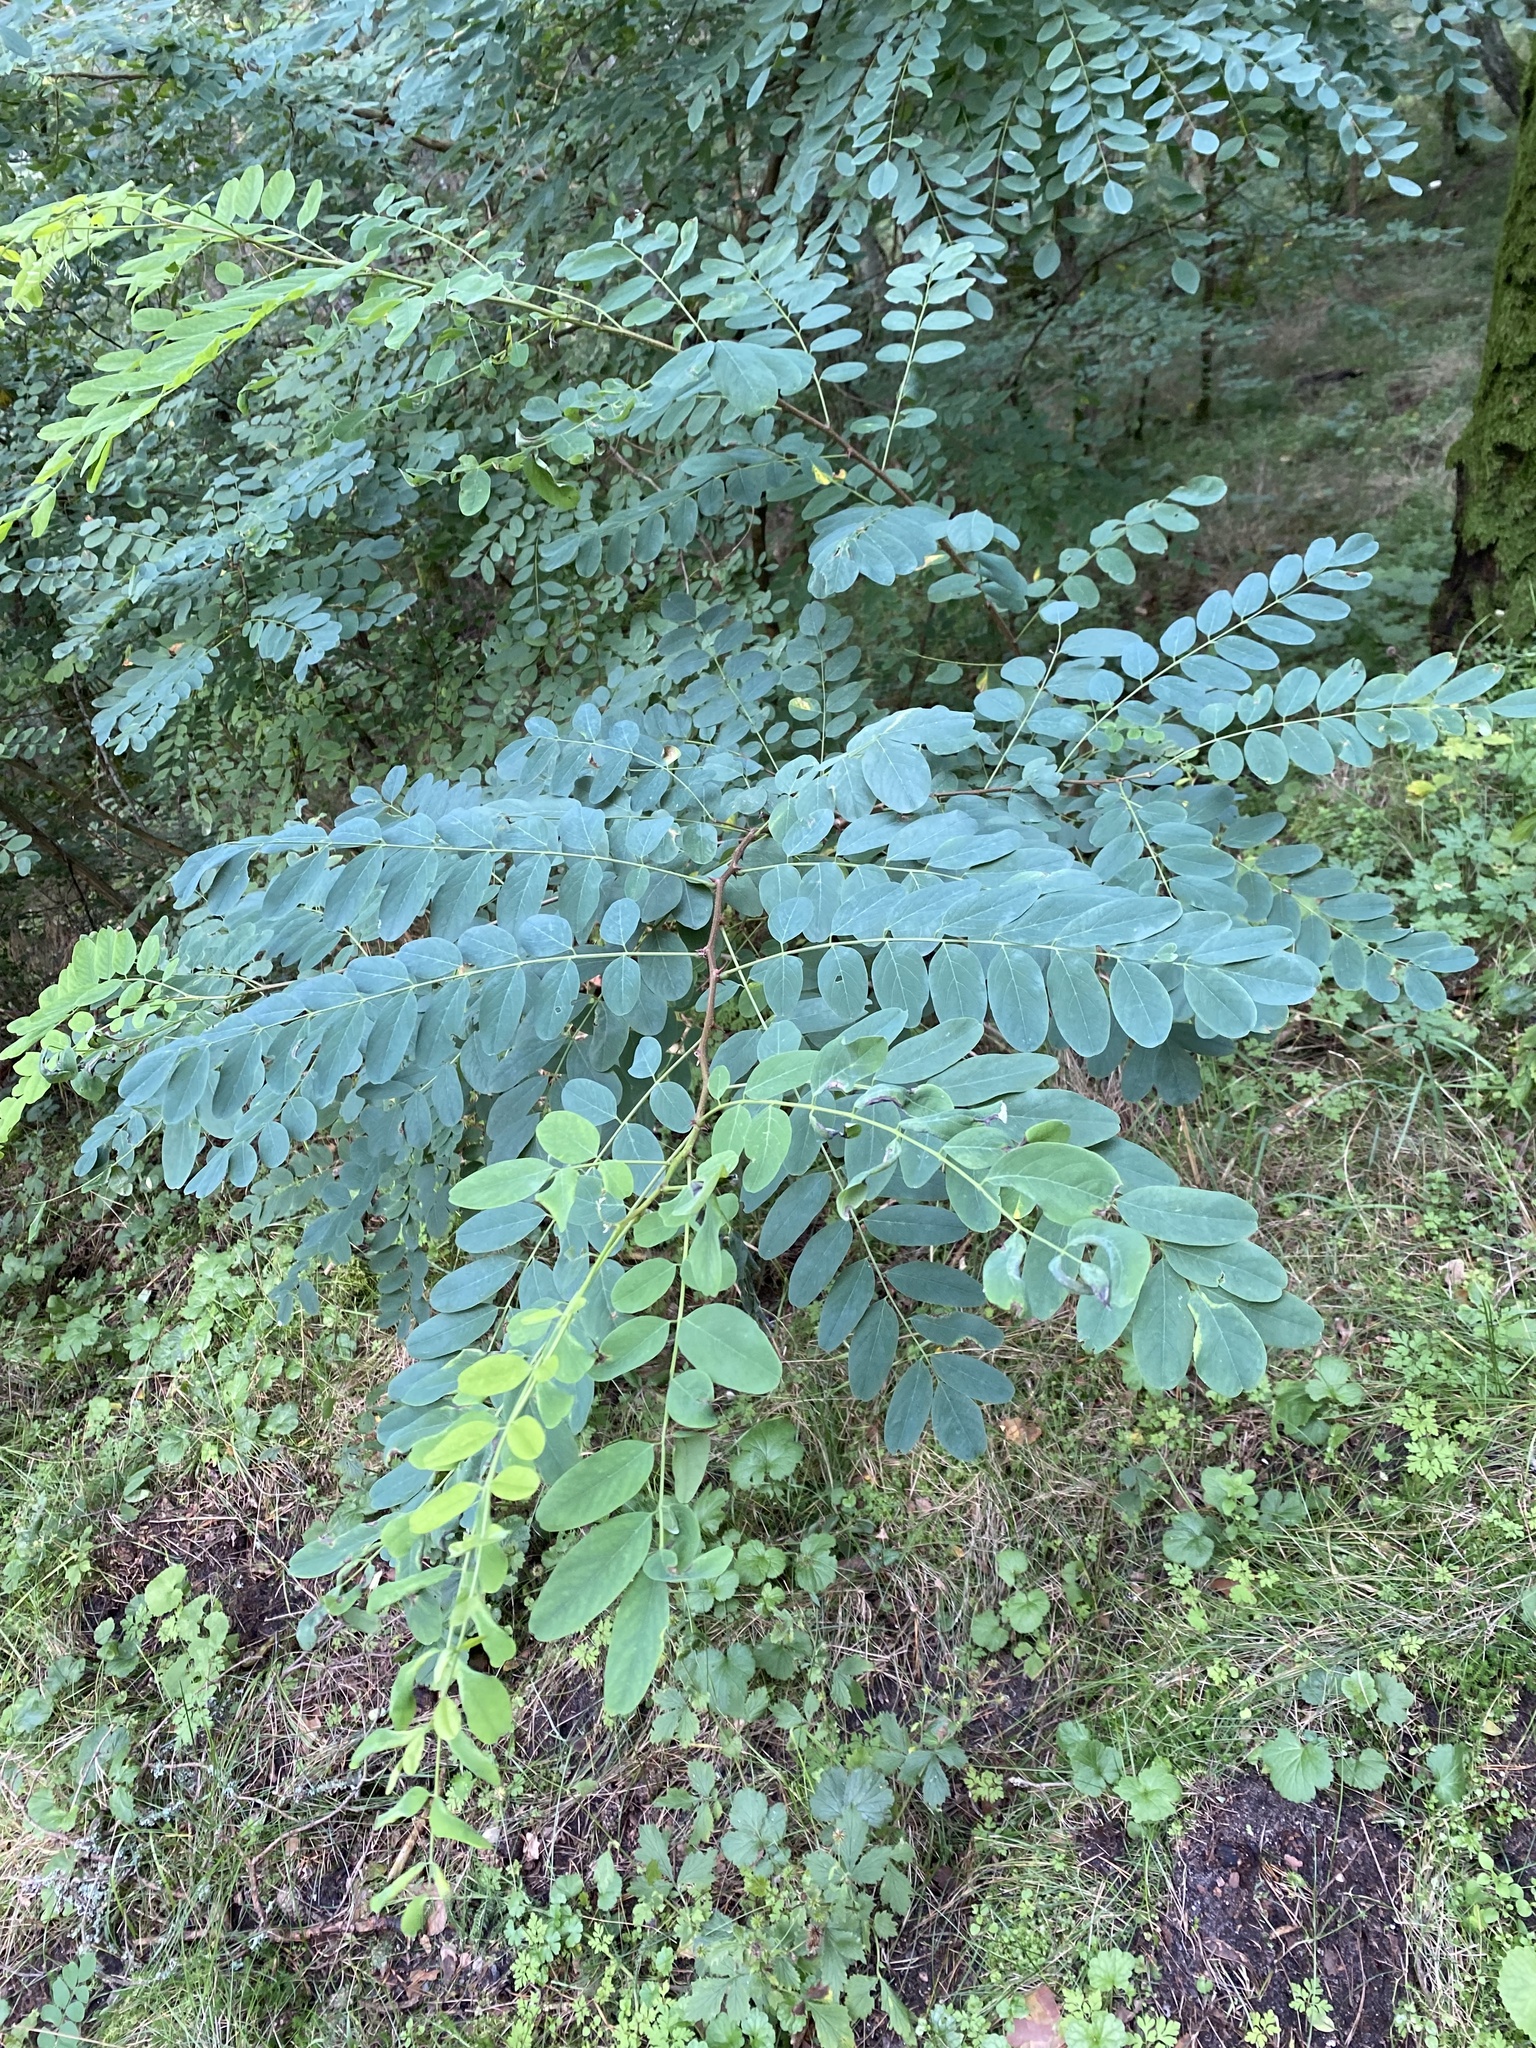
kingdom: Plantae
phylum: Tracheophyta
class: Magnoliopsida
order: Fabales
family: Fabaceae
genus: Robinia
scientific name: Robinia pseudoacacia
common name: Black locust
